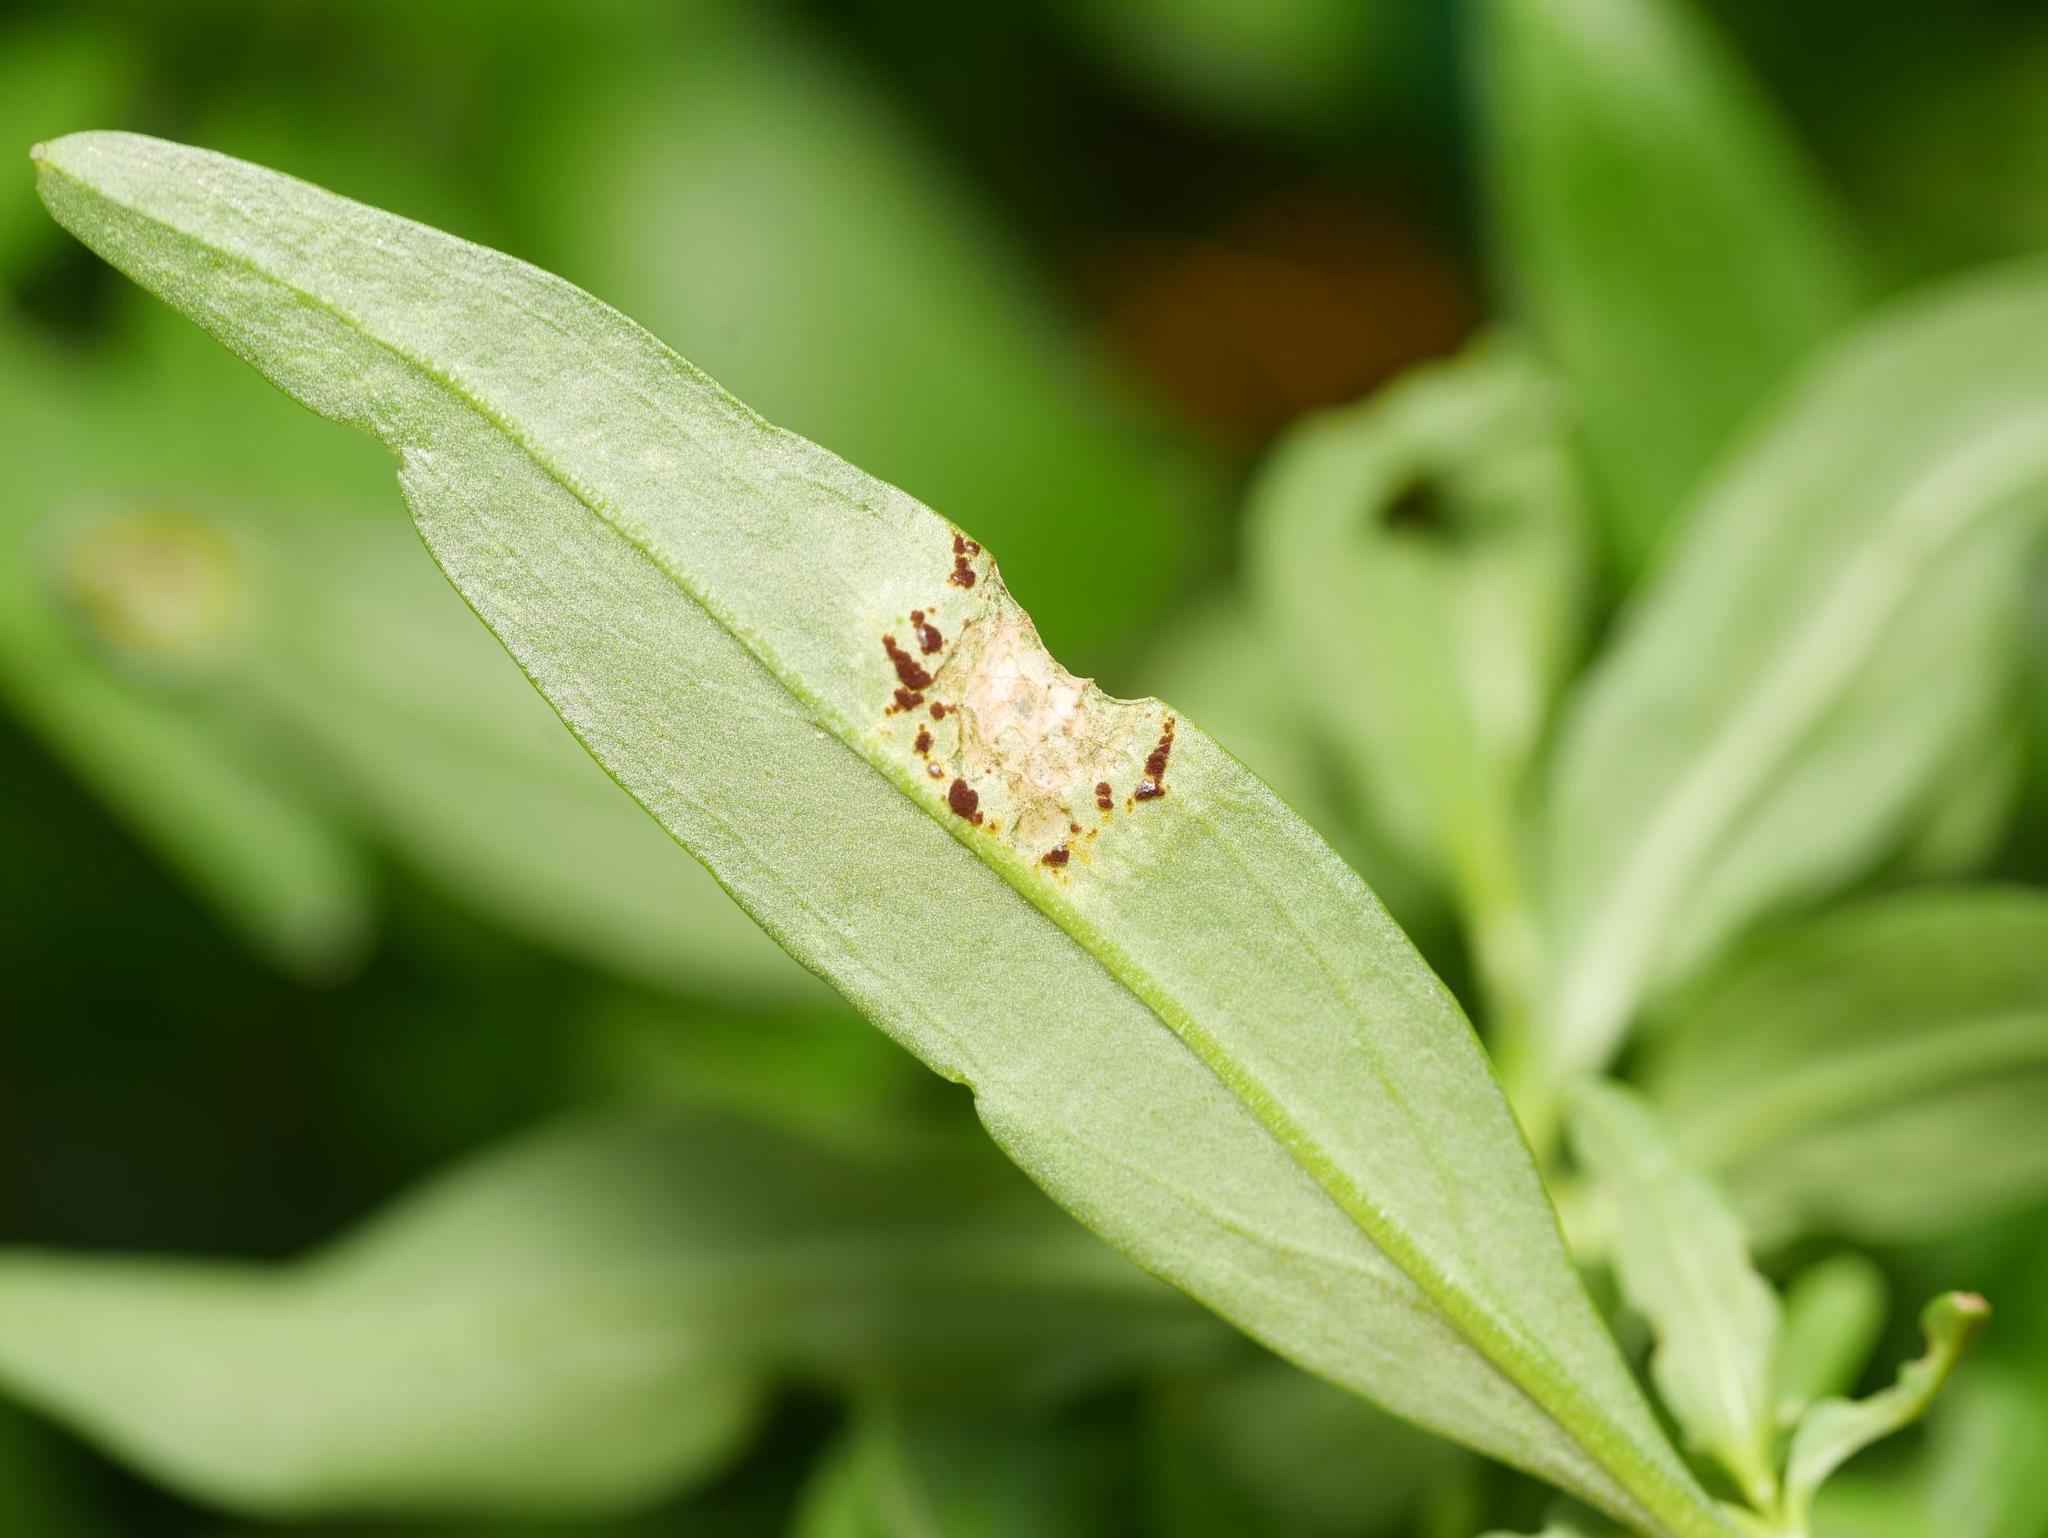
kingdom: Fungi
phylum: Basidiomycota
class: Pucciniomycetes
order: Pucciniales
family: Pucciniaceae
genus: Puccinia
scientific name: Puccinia antirrhini
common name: Antirrhinum rust
